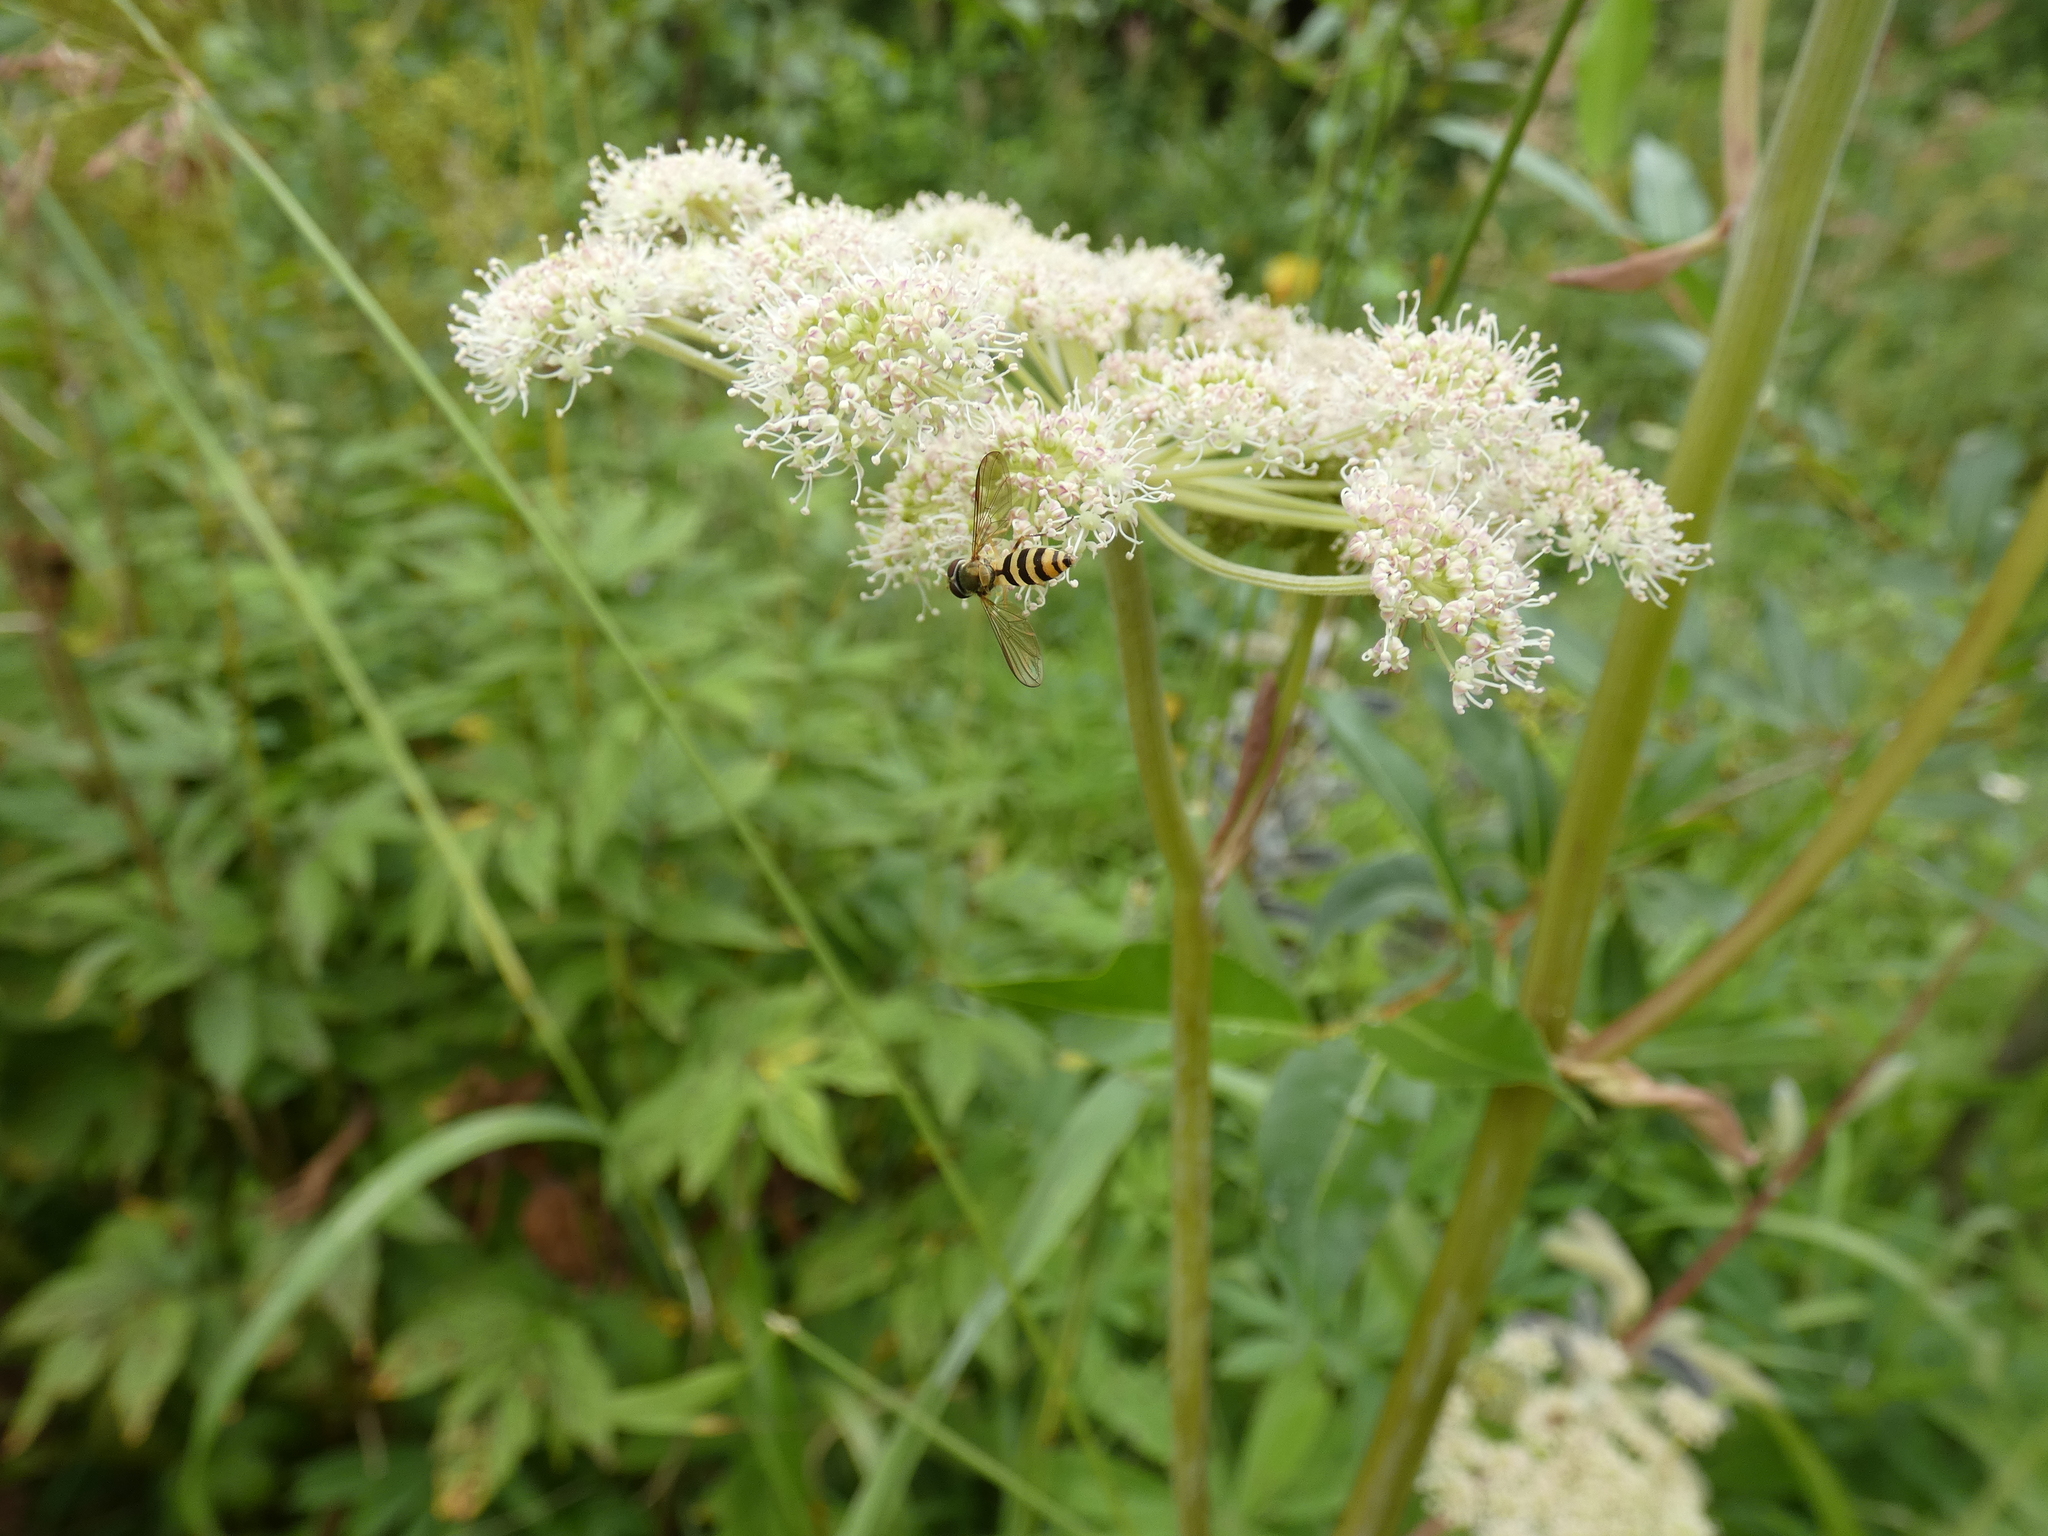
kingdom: Animalia
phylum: Arthropoda
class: Insecta
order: Diptera
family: Syrphidae
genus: Meliscaeva
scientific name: Meliscaeva cinctella
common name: American thintail fly
